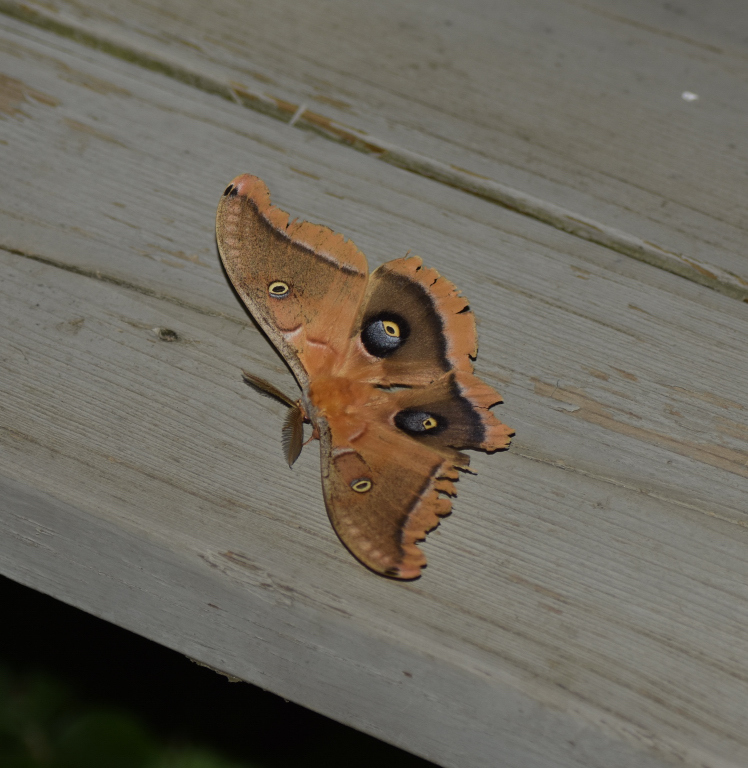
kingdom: Animalia
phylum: Arthropoda
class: Insecta
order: Lepidoptera
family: Saturniidae
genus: Antheraea
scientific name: Antheraea polyphemus
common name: Polyphemus moth
